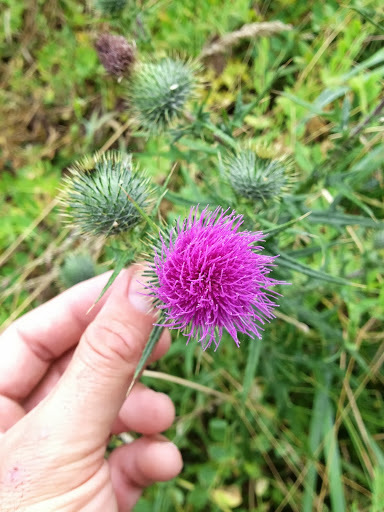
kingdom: Plantae
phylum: Tracheophyta
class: Magnoliopsida
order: Asterales
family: Asteraceae
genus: Cirsium
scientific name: Cirsium vulgare
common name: Bull thistle
